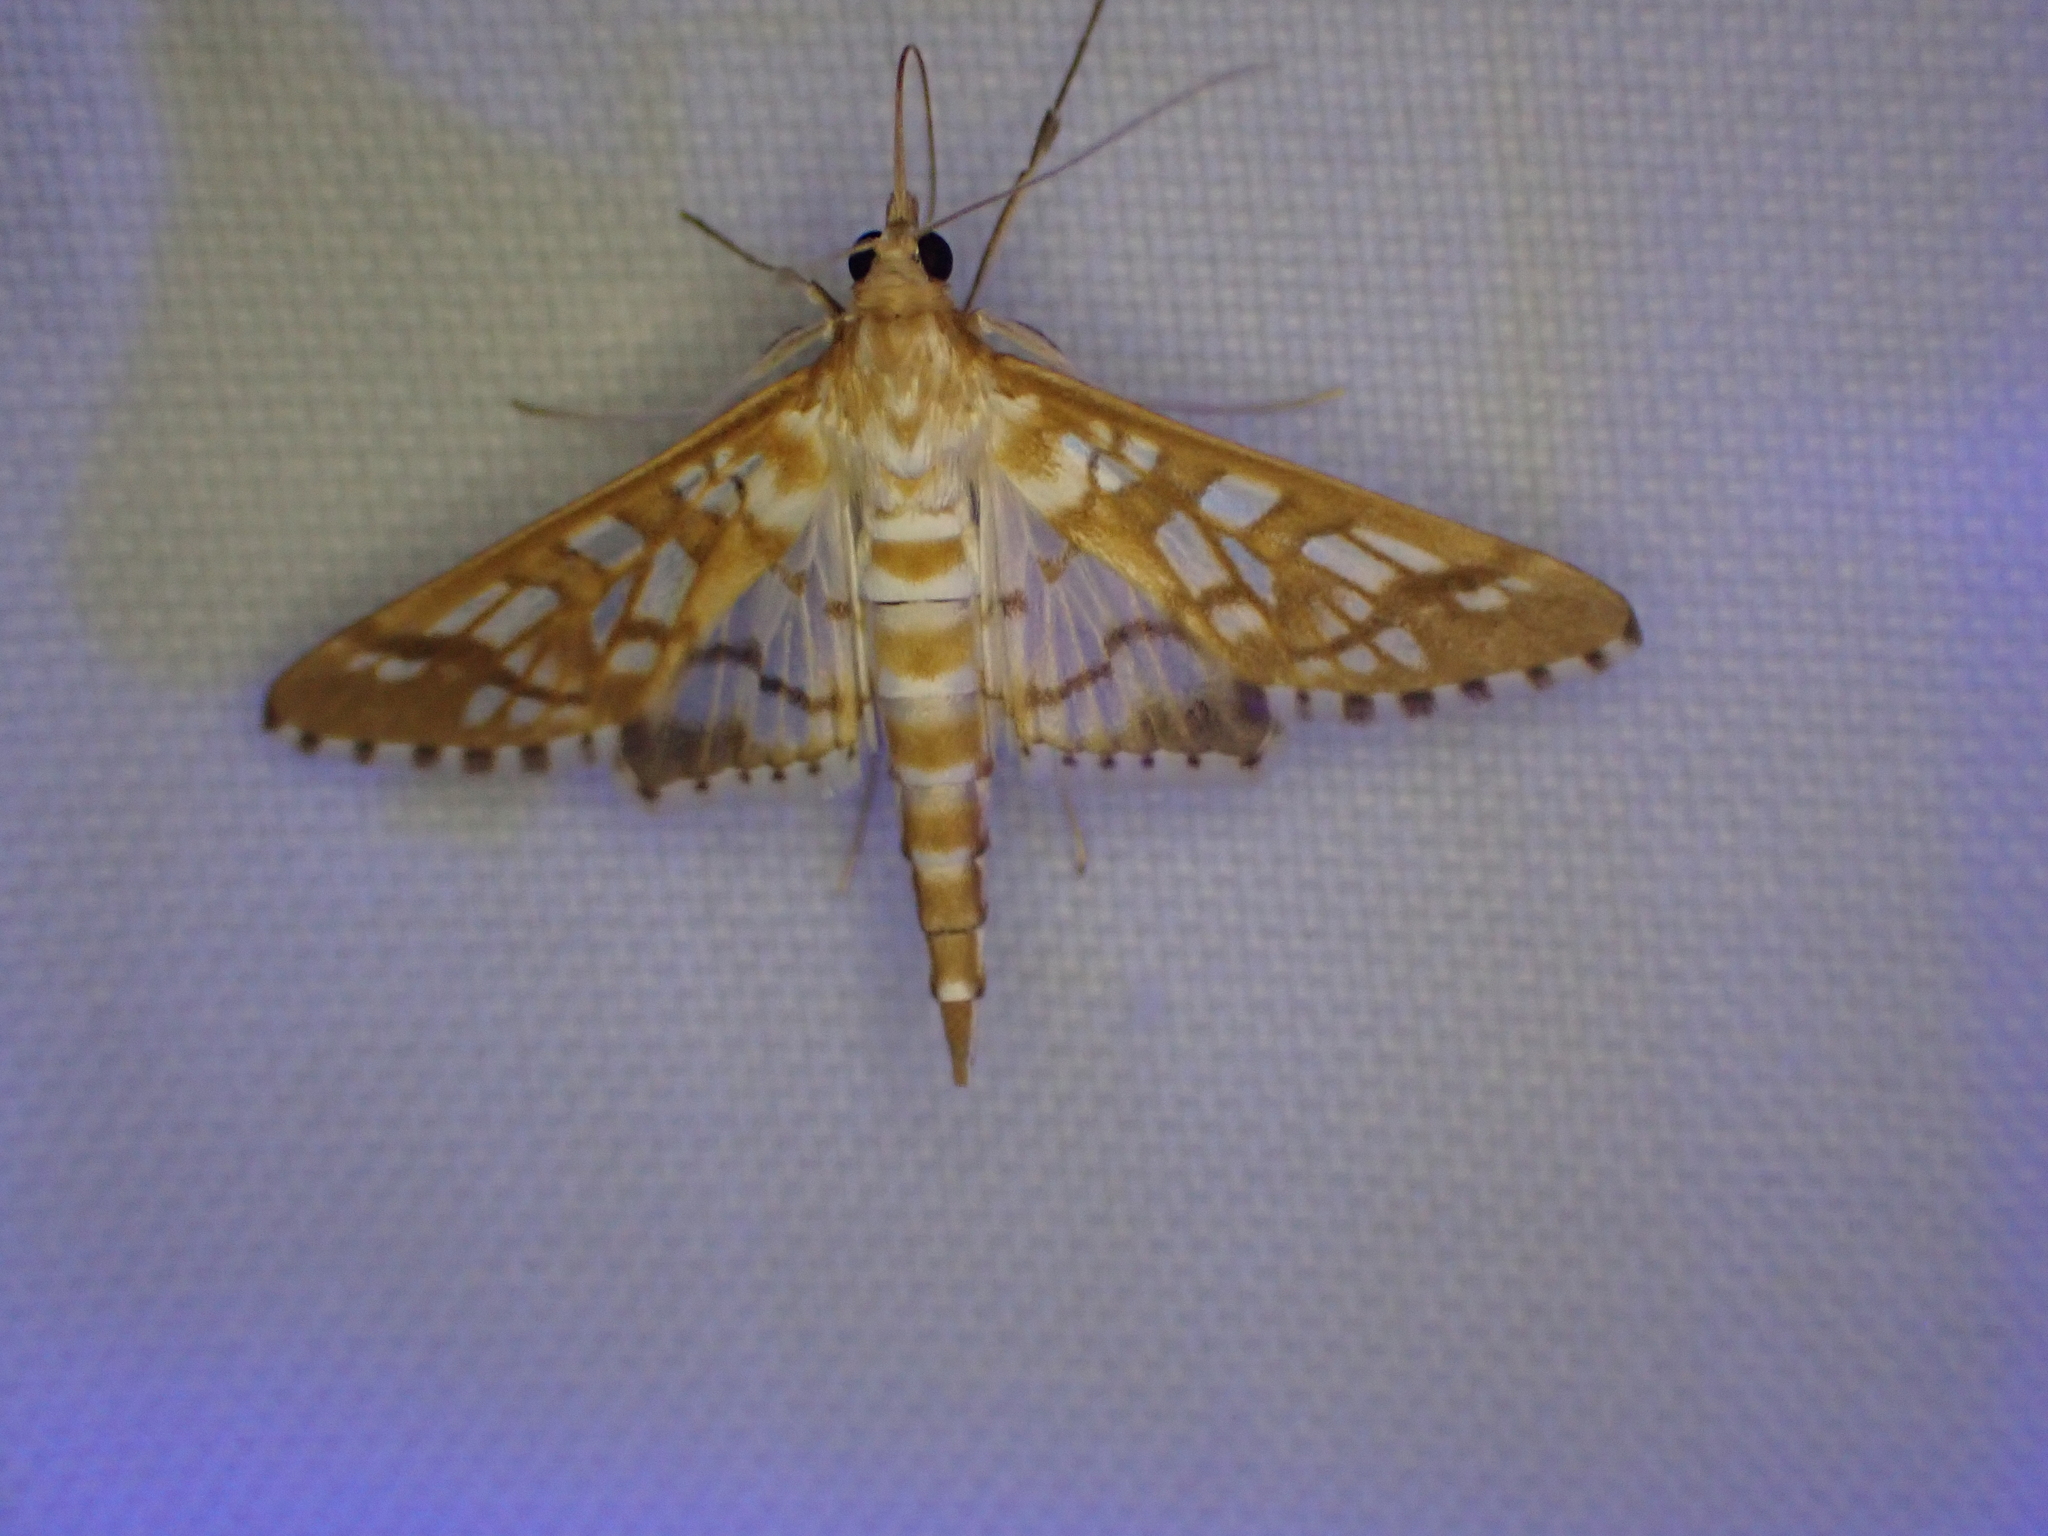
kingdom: Animalia
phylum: Arthropoda
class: Insecta
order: Lepidoptera
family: Crambidae
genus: Epipagis
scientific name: Epipagis fenestralis
